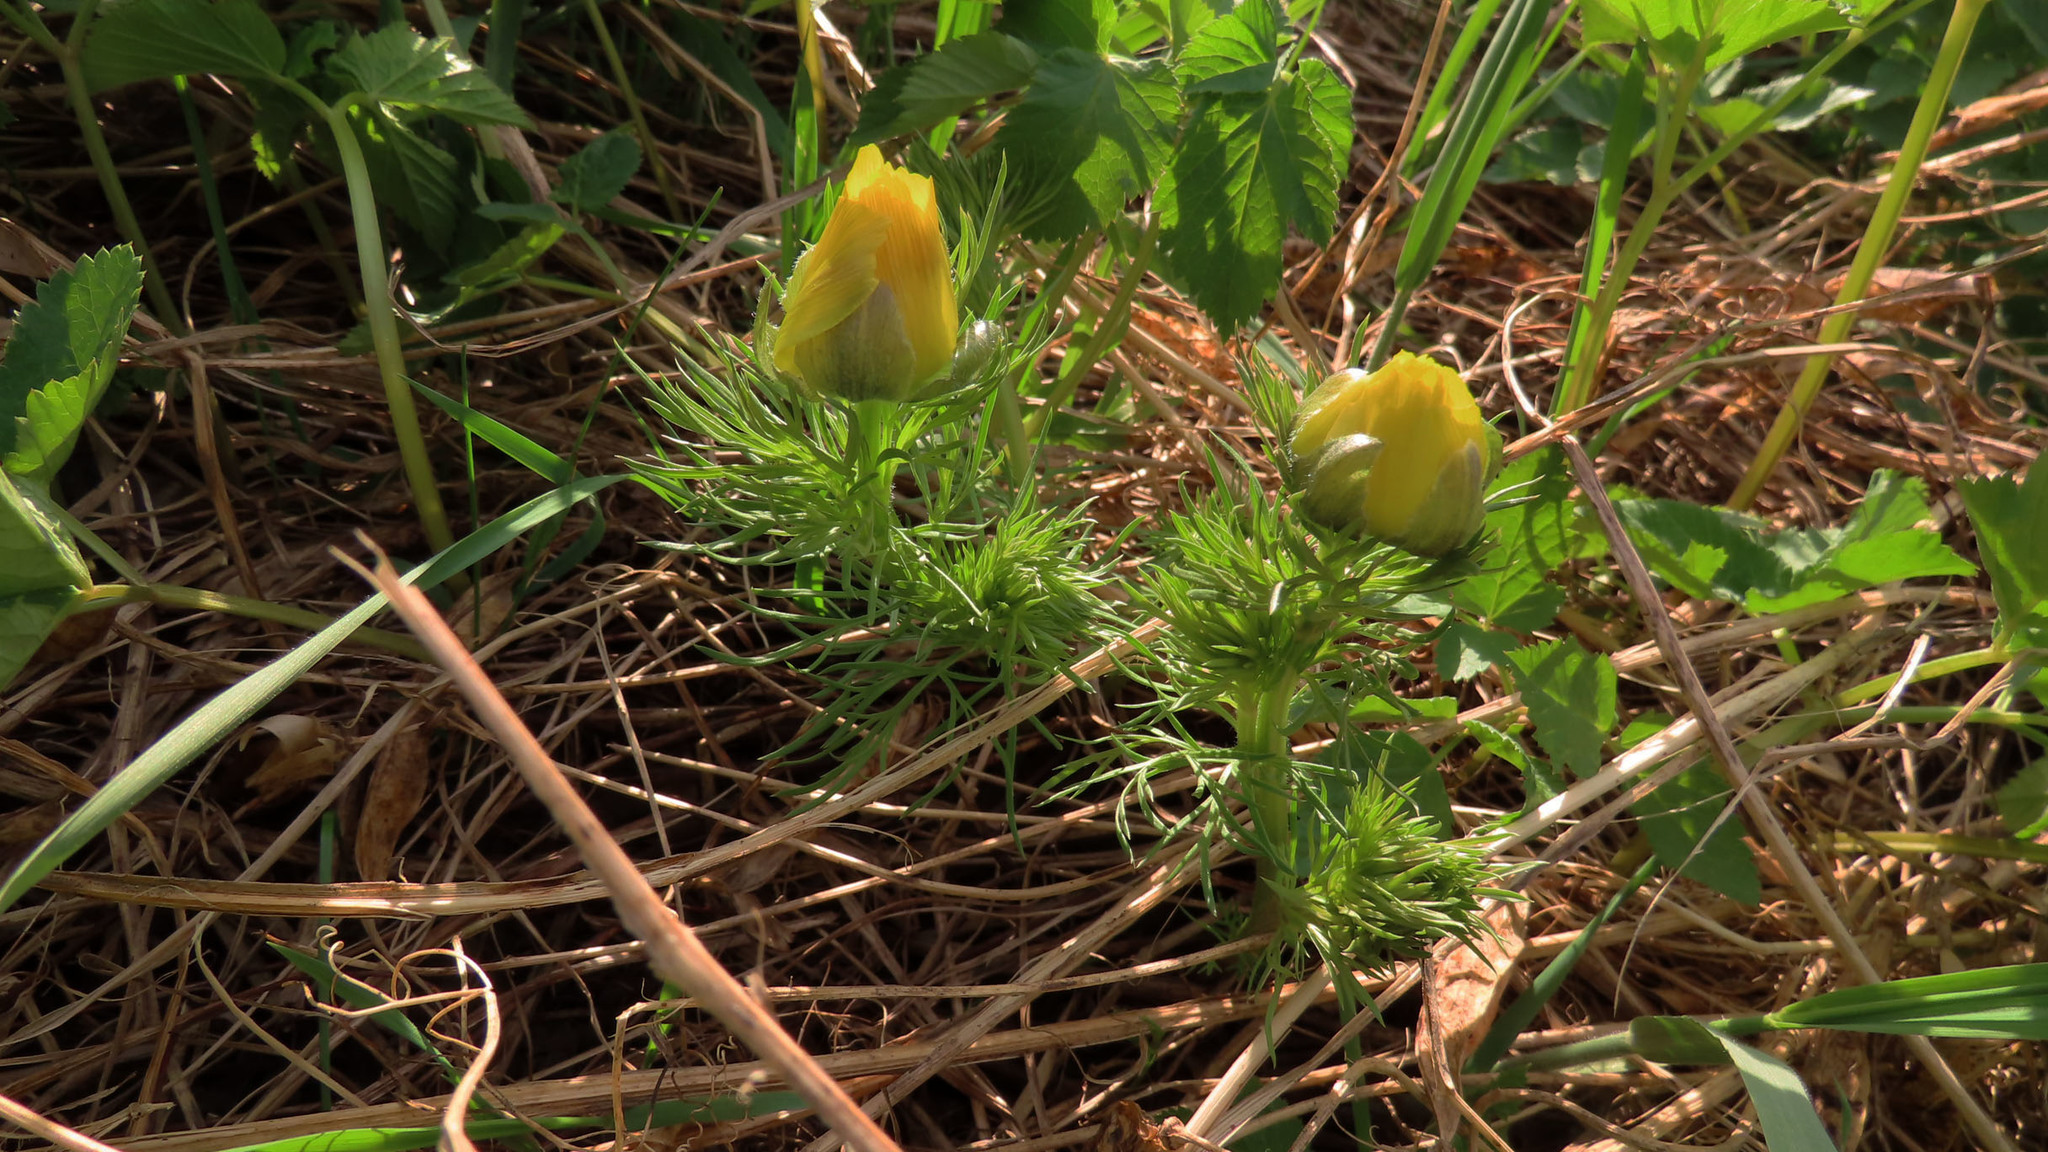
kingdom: Plantae
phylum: Tracheophyta
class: Magnoliopsida
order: Ranunculales
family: Ranunculaceae
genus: Adonis
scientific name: Adonis vernalis
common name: Yellow pheasants-eye
